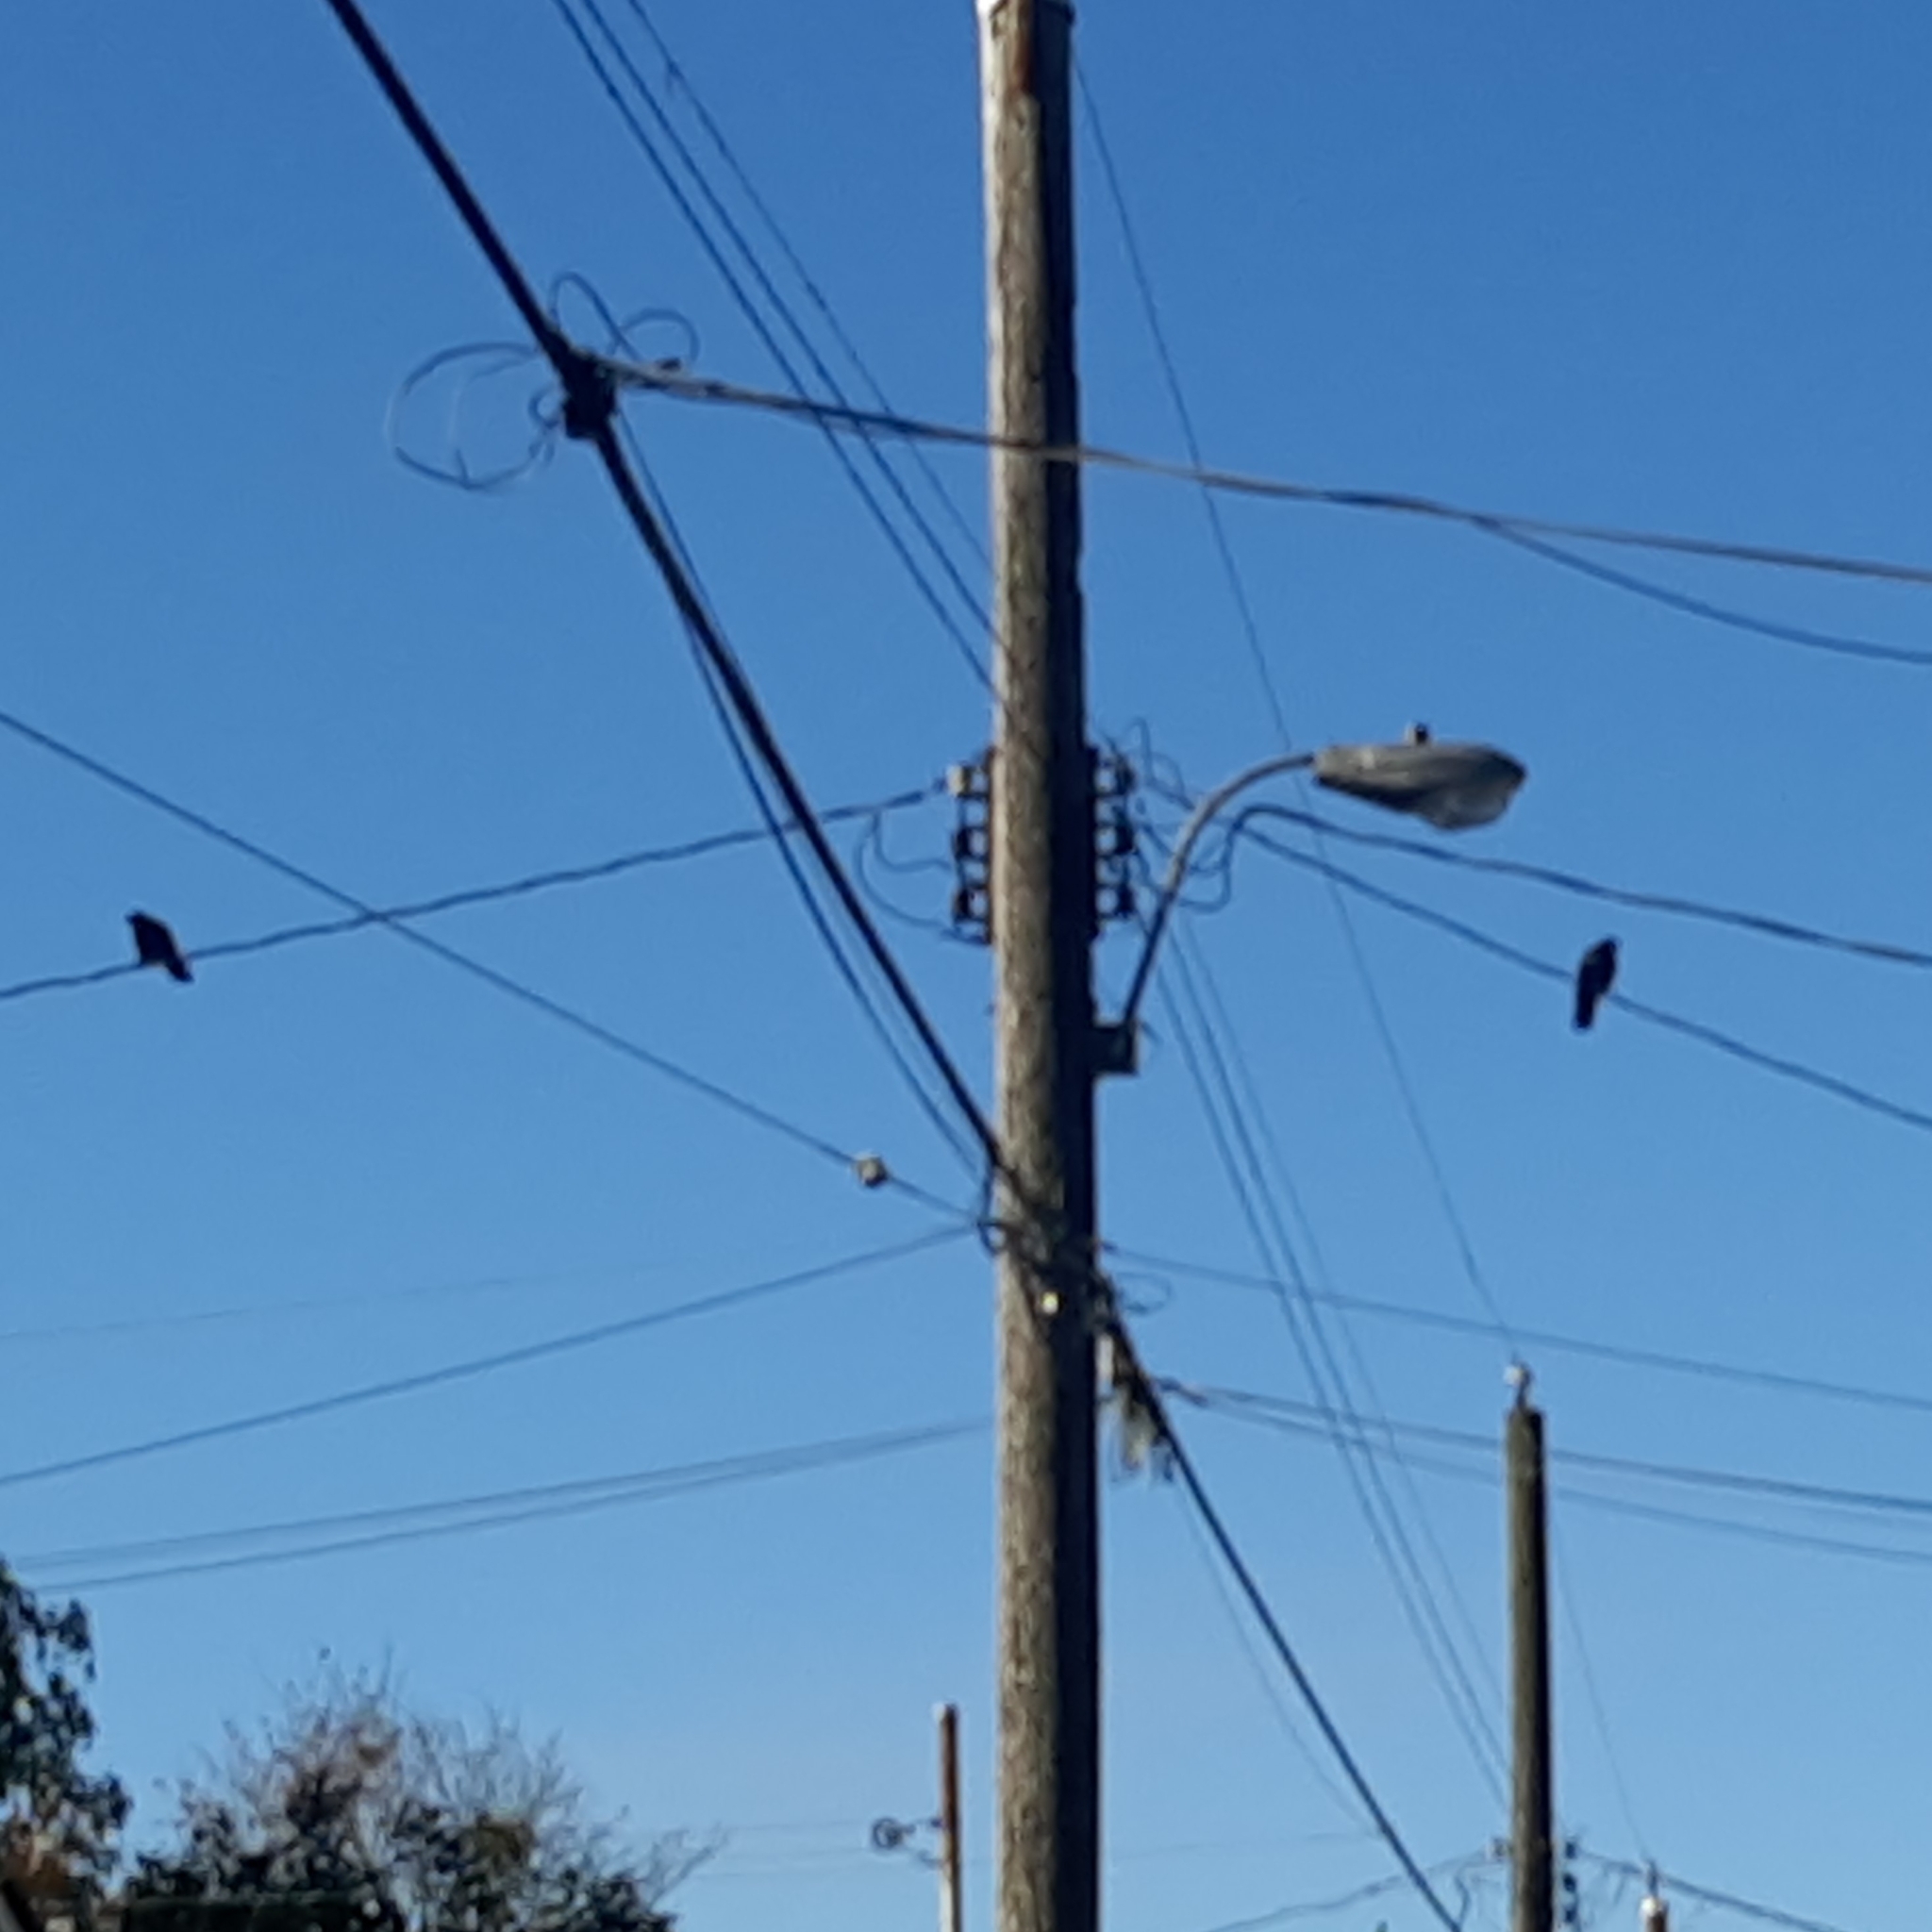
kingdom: Animalia
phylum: Chordata
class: Aves
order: Passeriformes
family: Corvidae
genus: Corvus
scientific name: Corvus brachyrhynchos
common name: American crow
